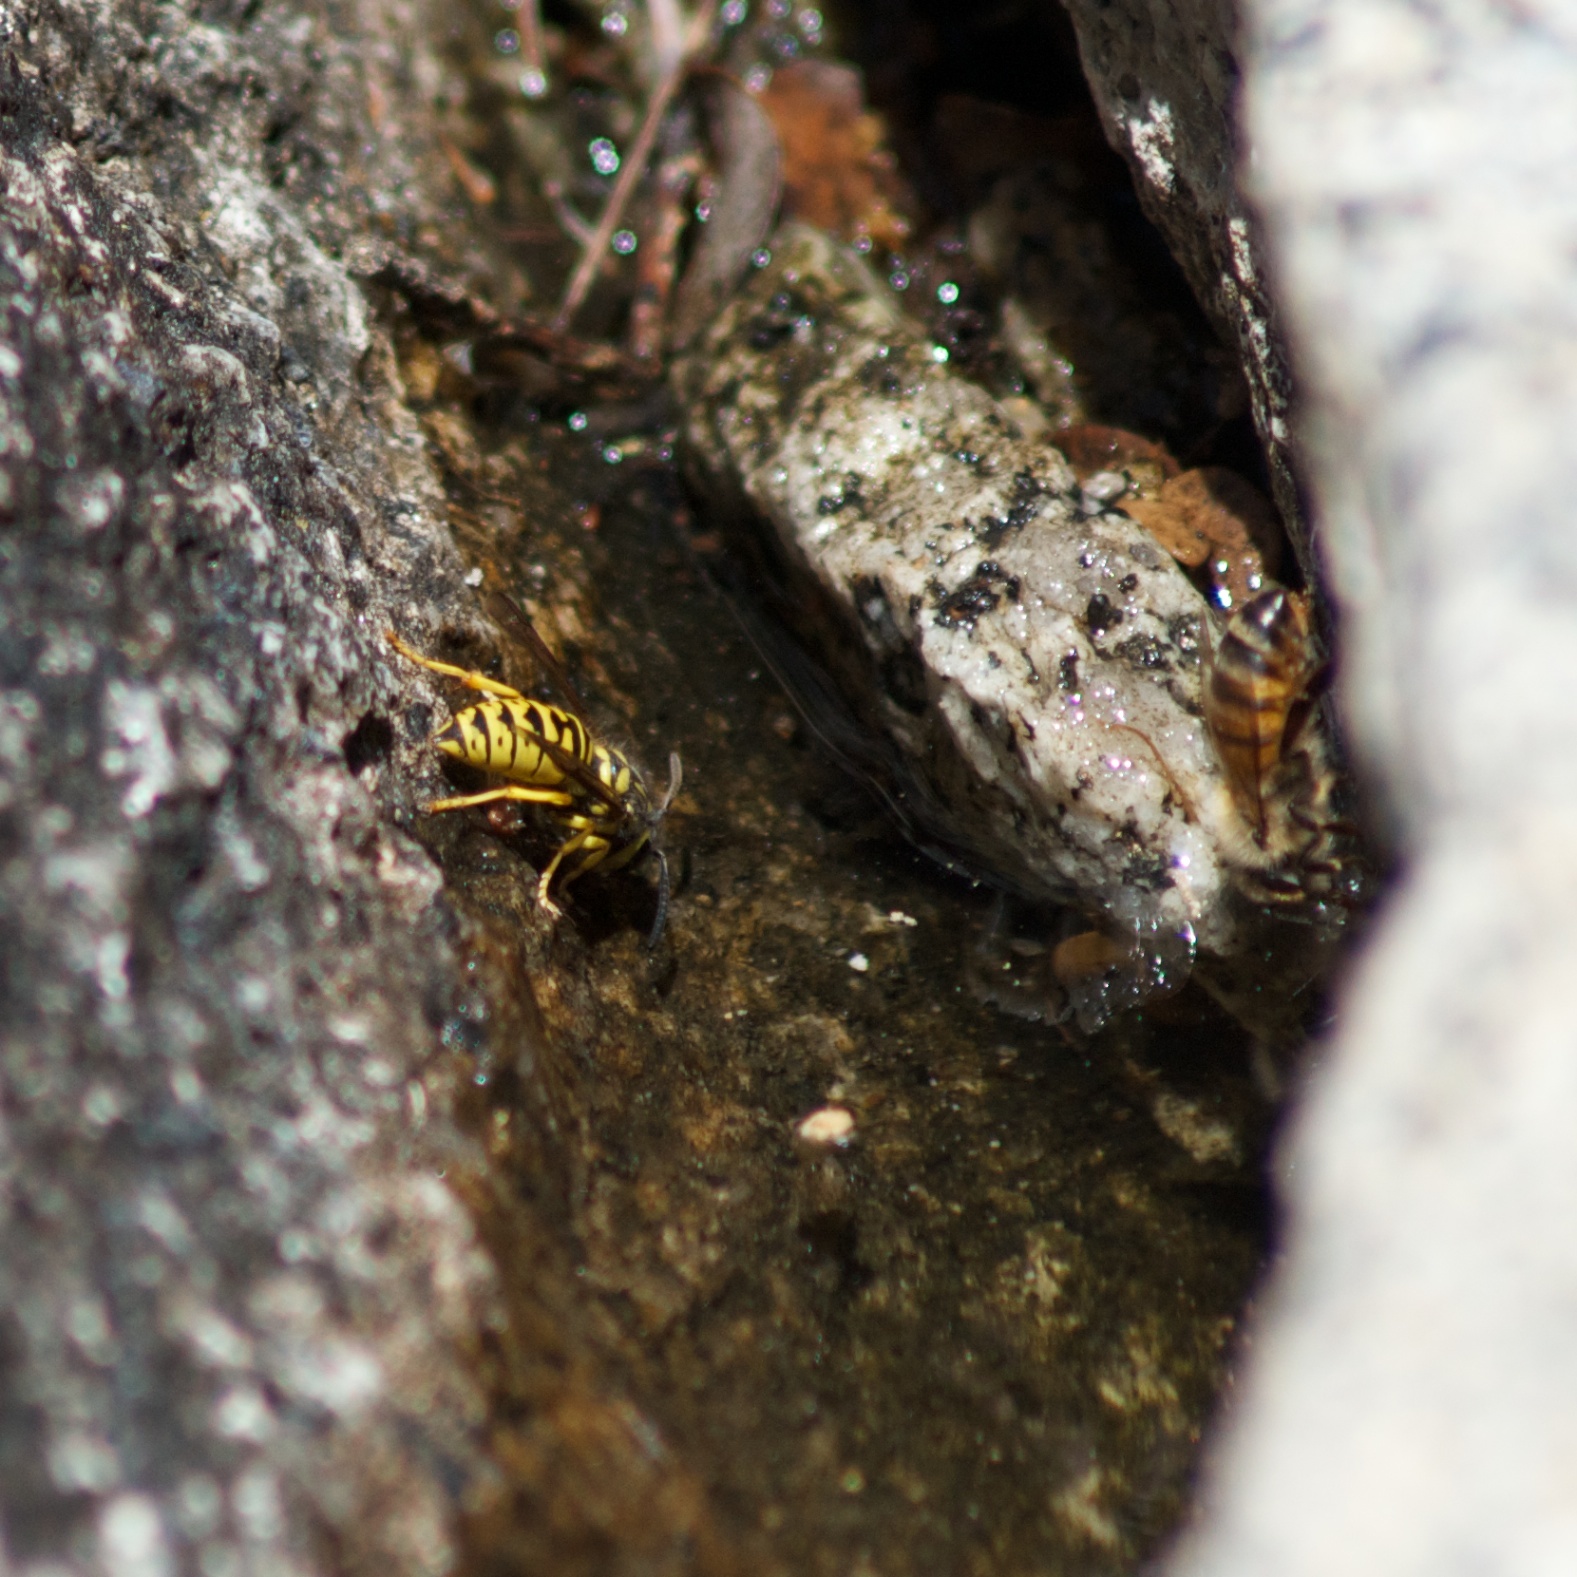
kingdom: Animalia
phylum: Arthropoda
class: Insecta
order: Hymenoptera
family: Vespidae
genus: Vespula
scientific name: Vespula sulphurea
